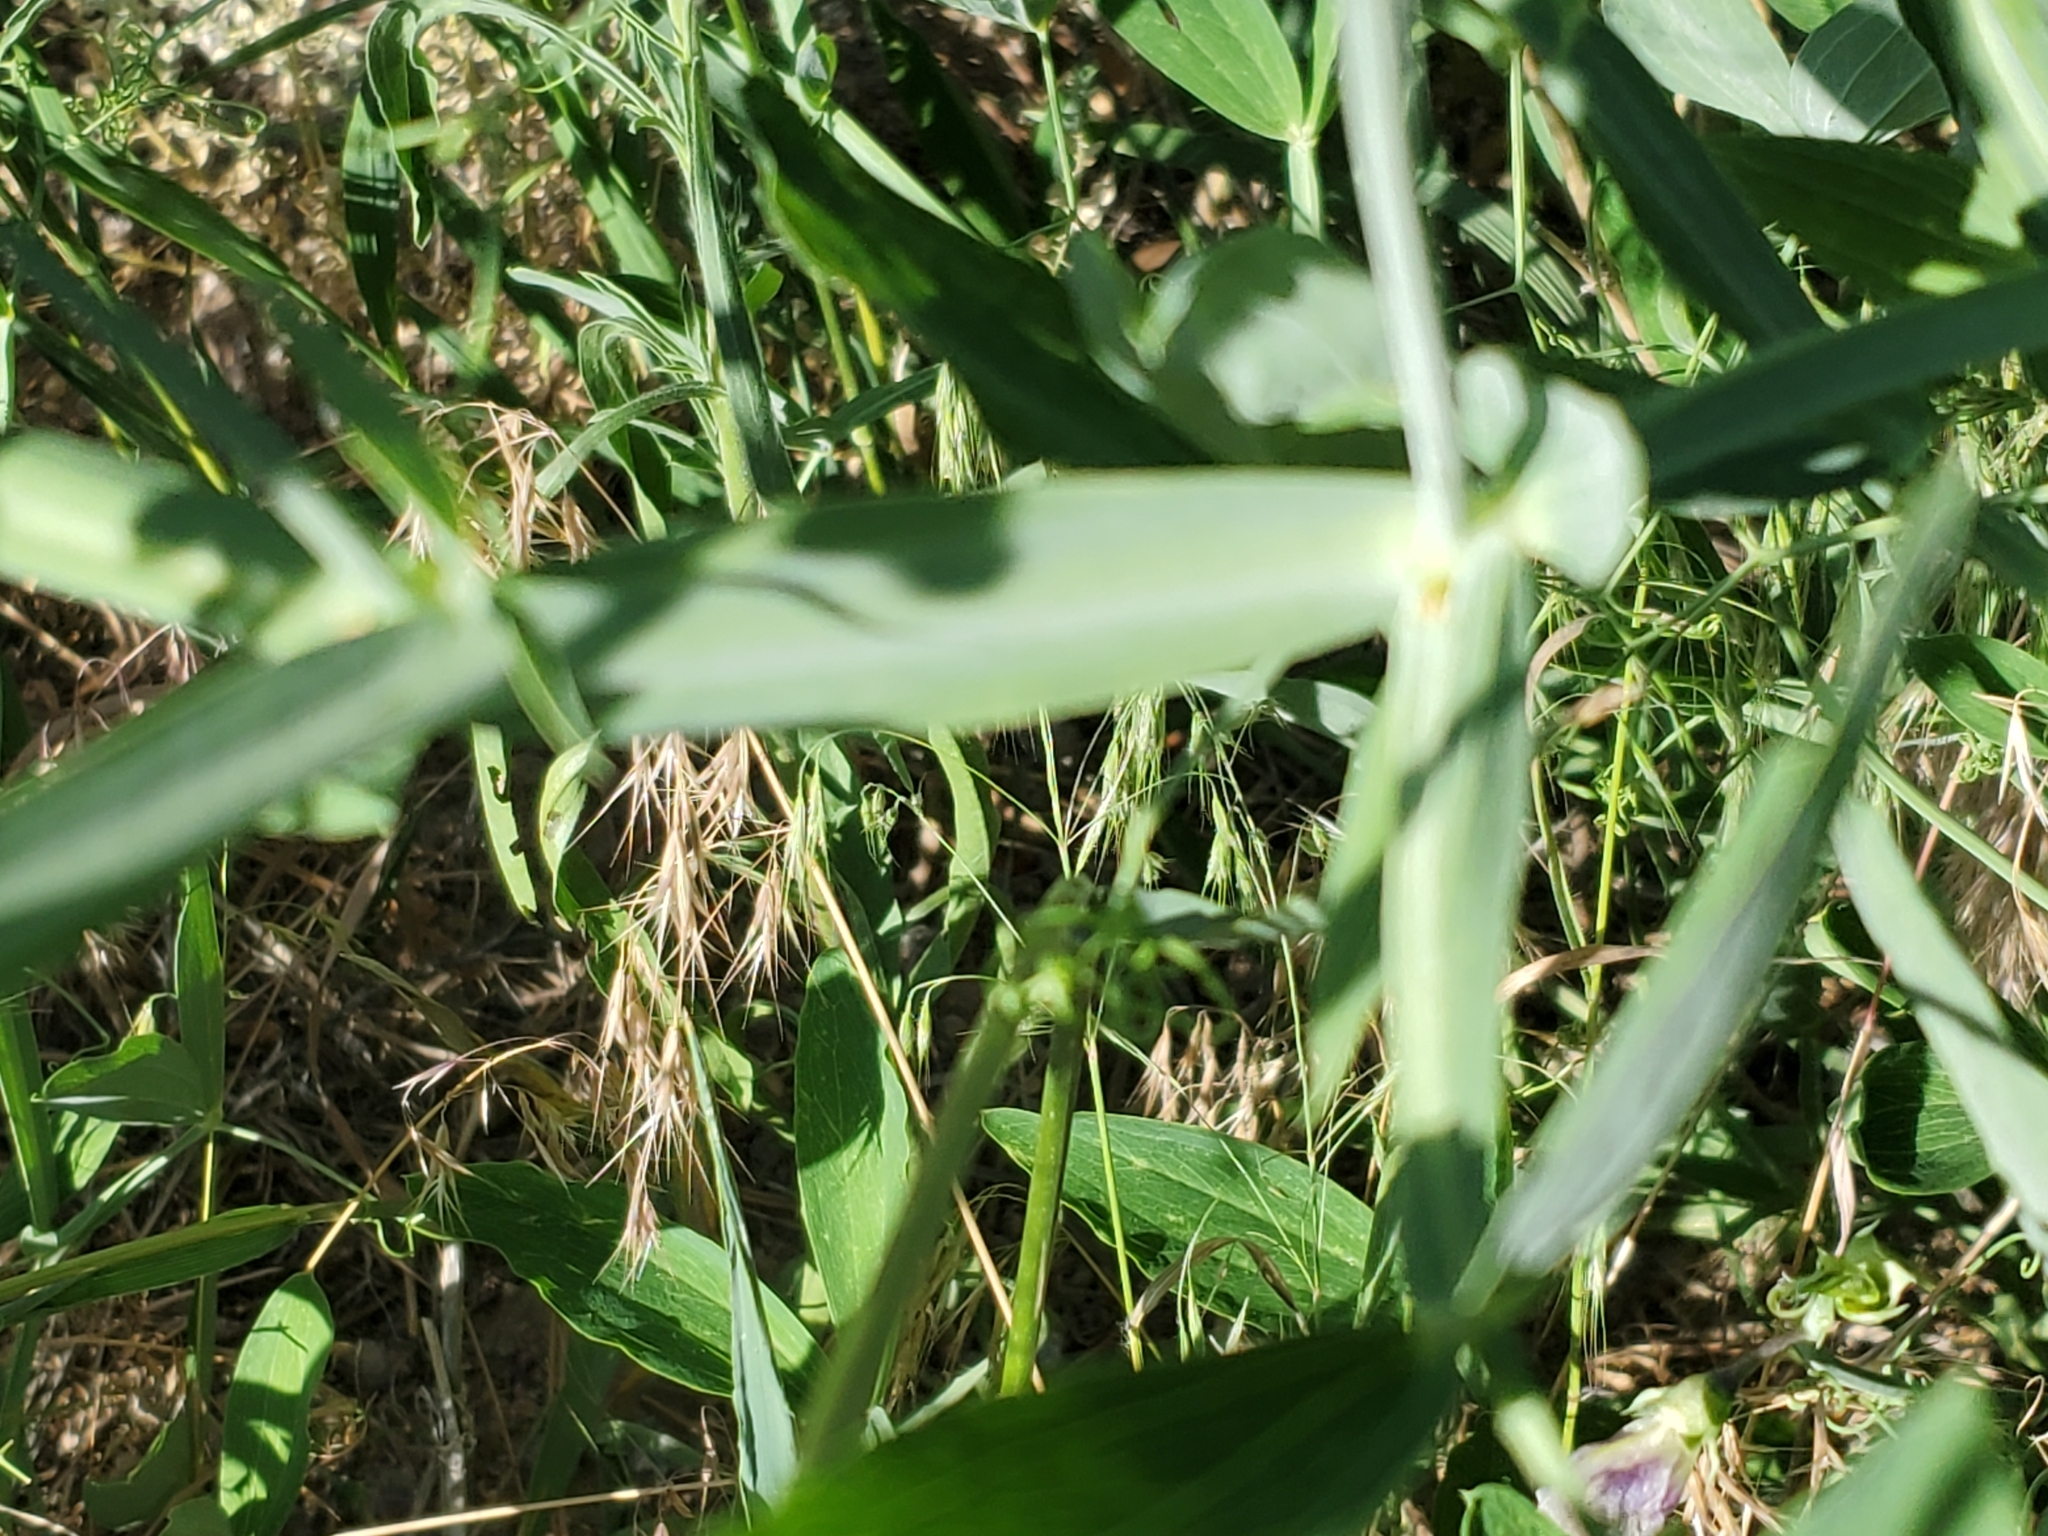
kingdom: Plantae
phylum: Tracheophyta
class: Magnoliopsida
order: Fabales
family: Fabaceae
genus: Lathyrus
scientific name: Lathyrus latifolius
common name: Perennial pea
